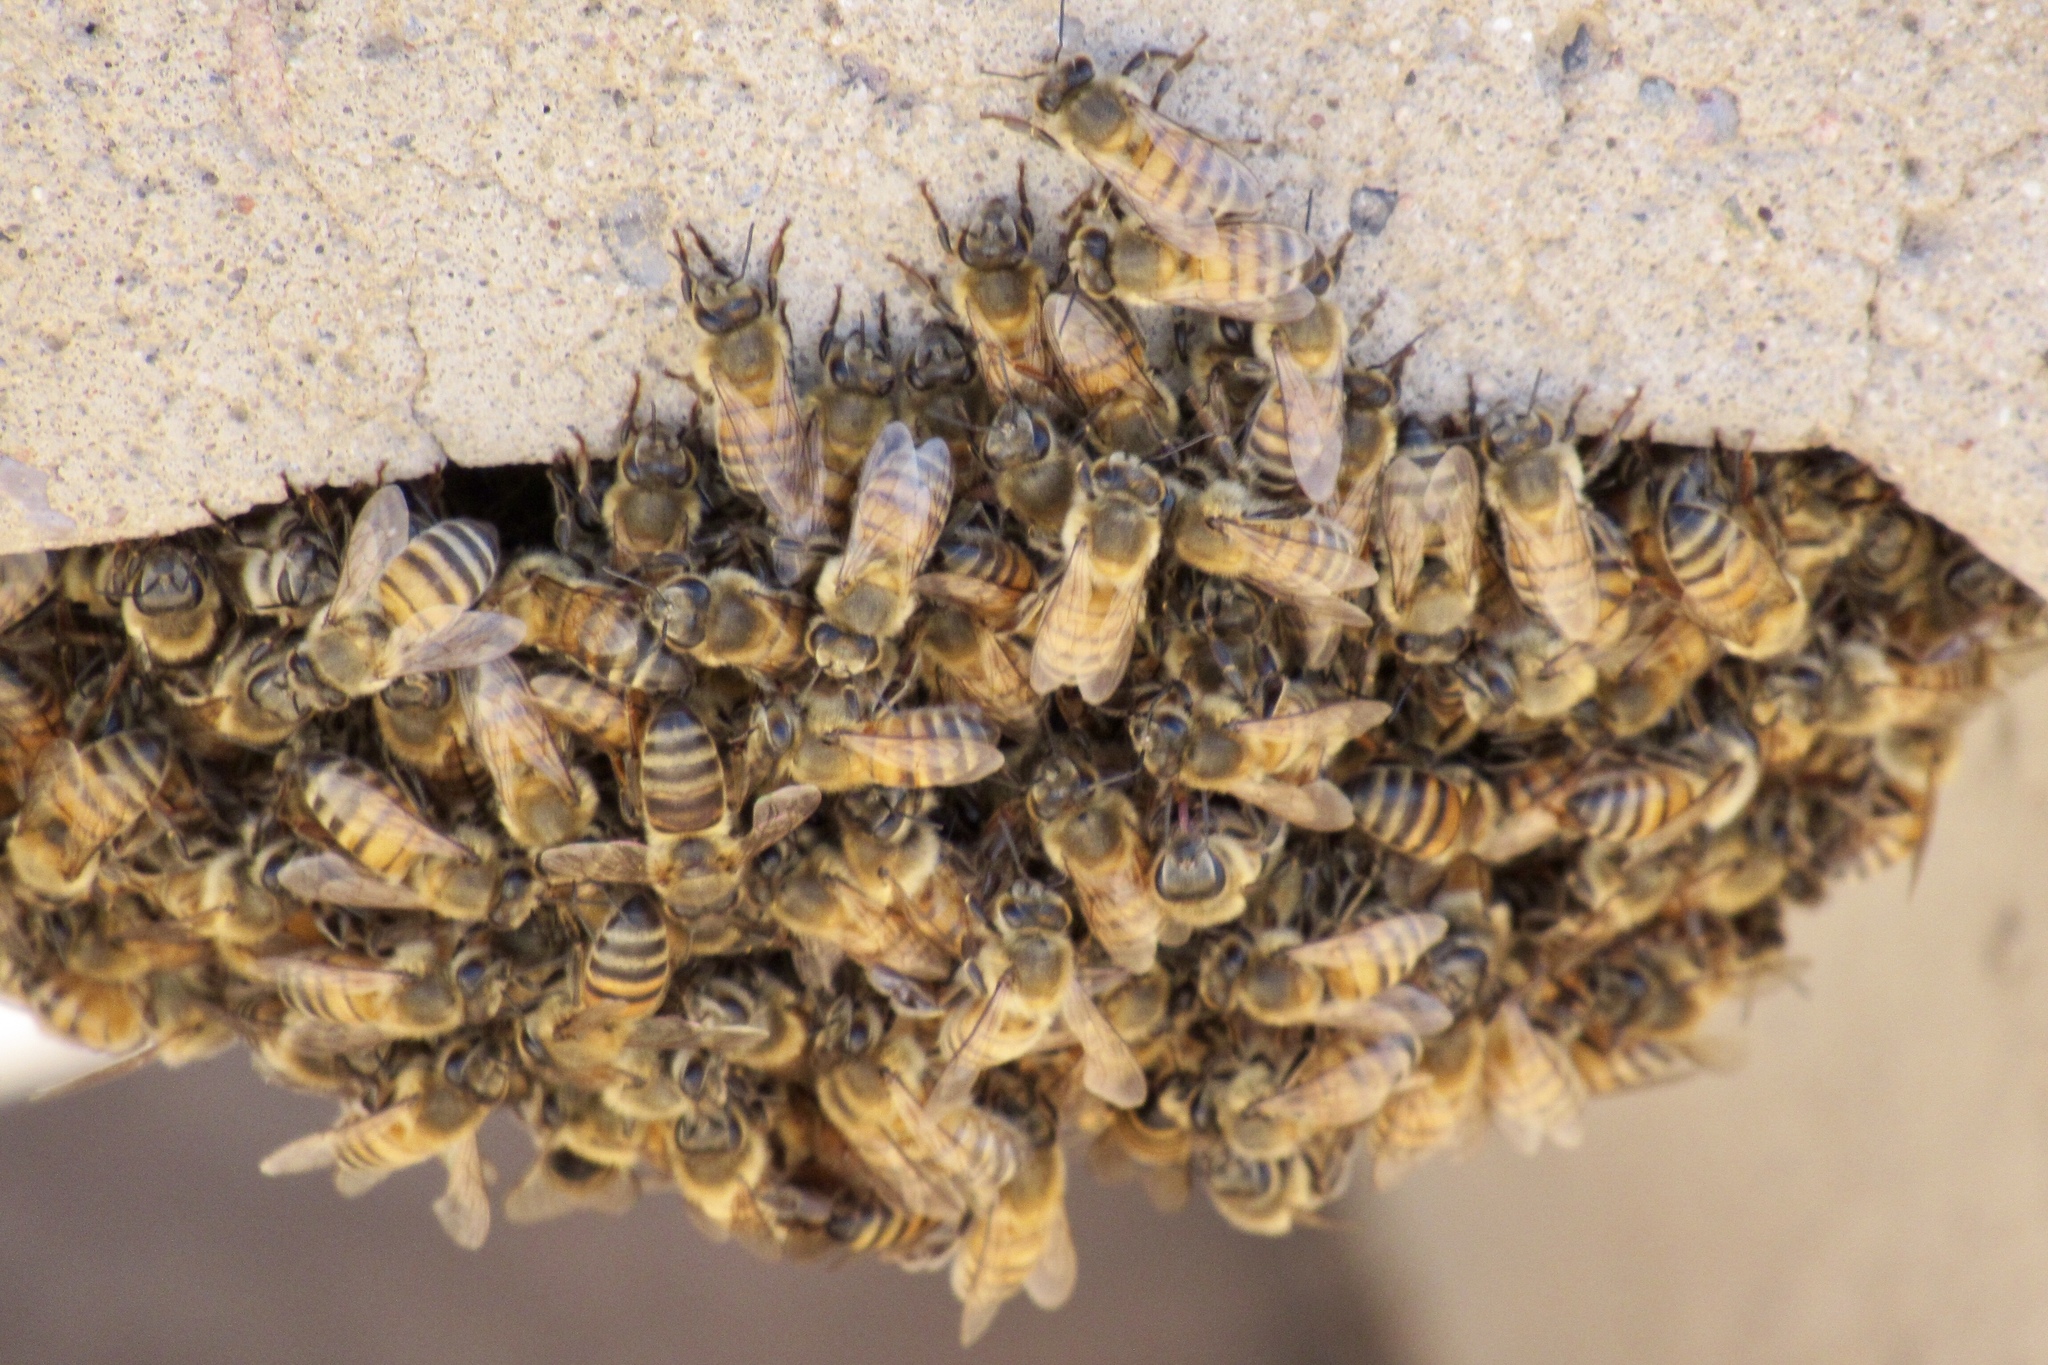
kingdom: Animalia
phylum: Arthropoda
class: Insecta
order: Hymenoptera
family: Apidae
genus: Apis
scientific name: Apis mellifera
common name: Honey bee
